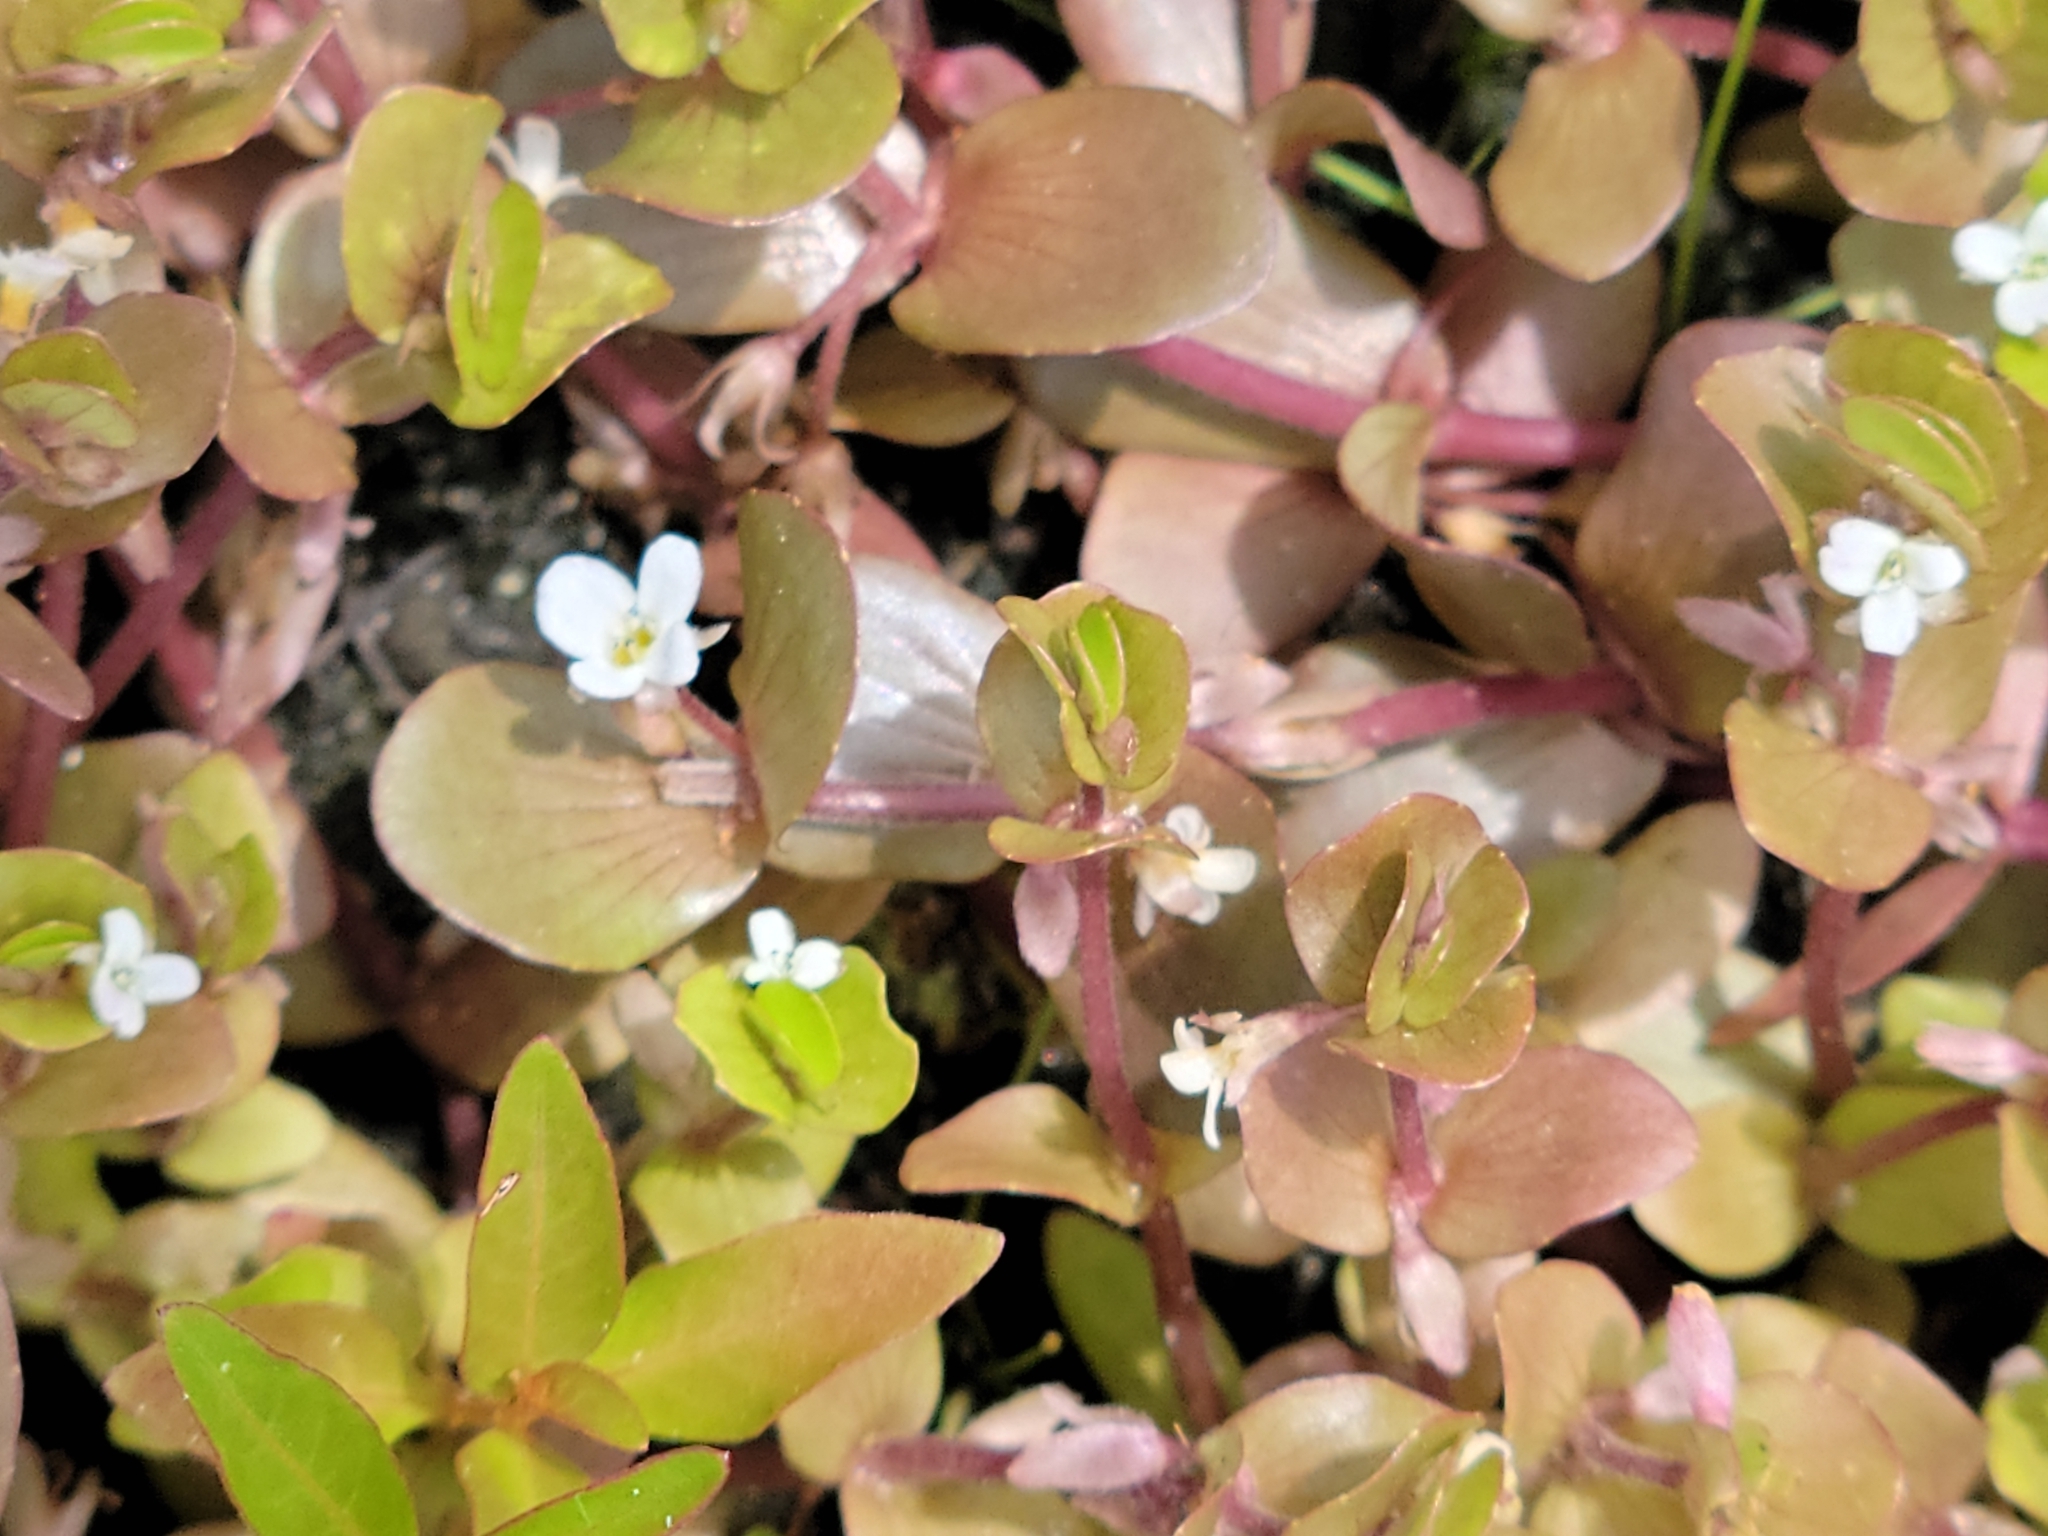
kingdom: Plantae
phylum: Tracheophyta
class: Magnoliopsida
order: Lamiales
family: Plantaginaceae
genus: Bacopa
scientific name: Bacopa innominata
